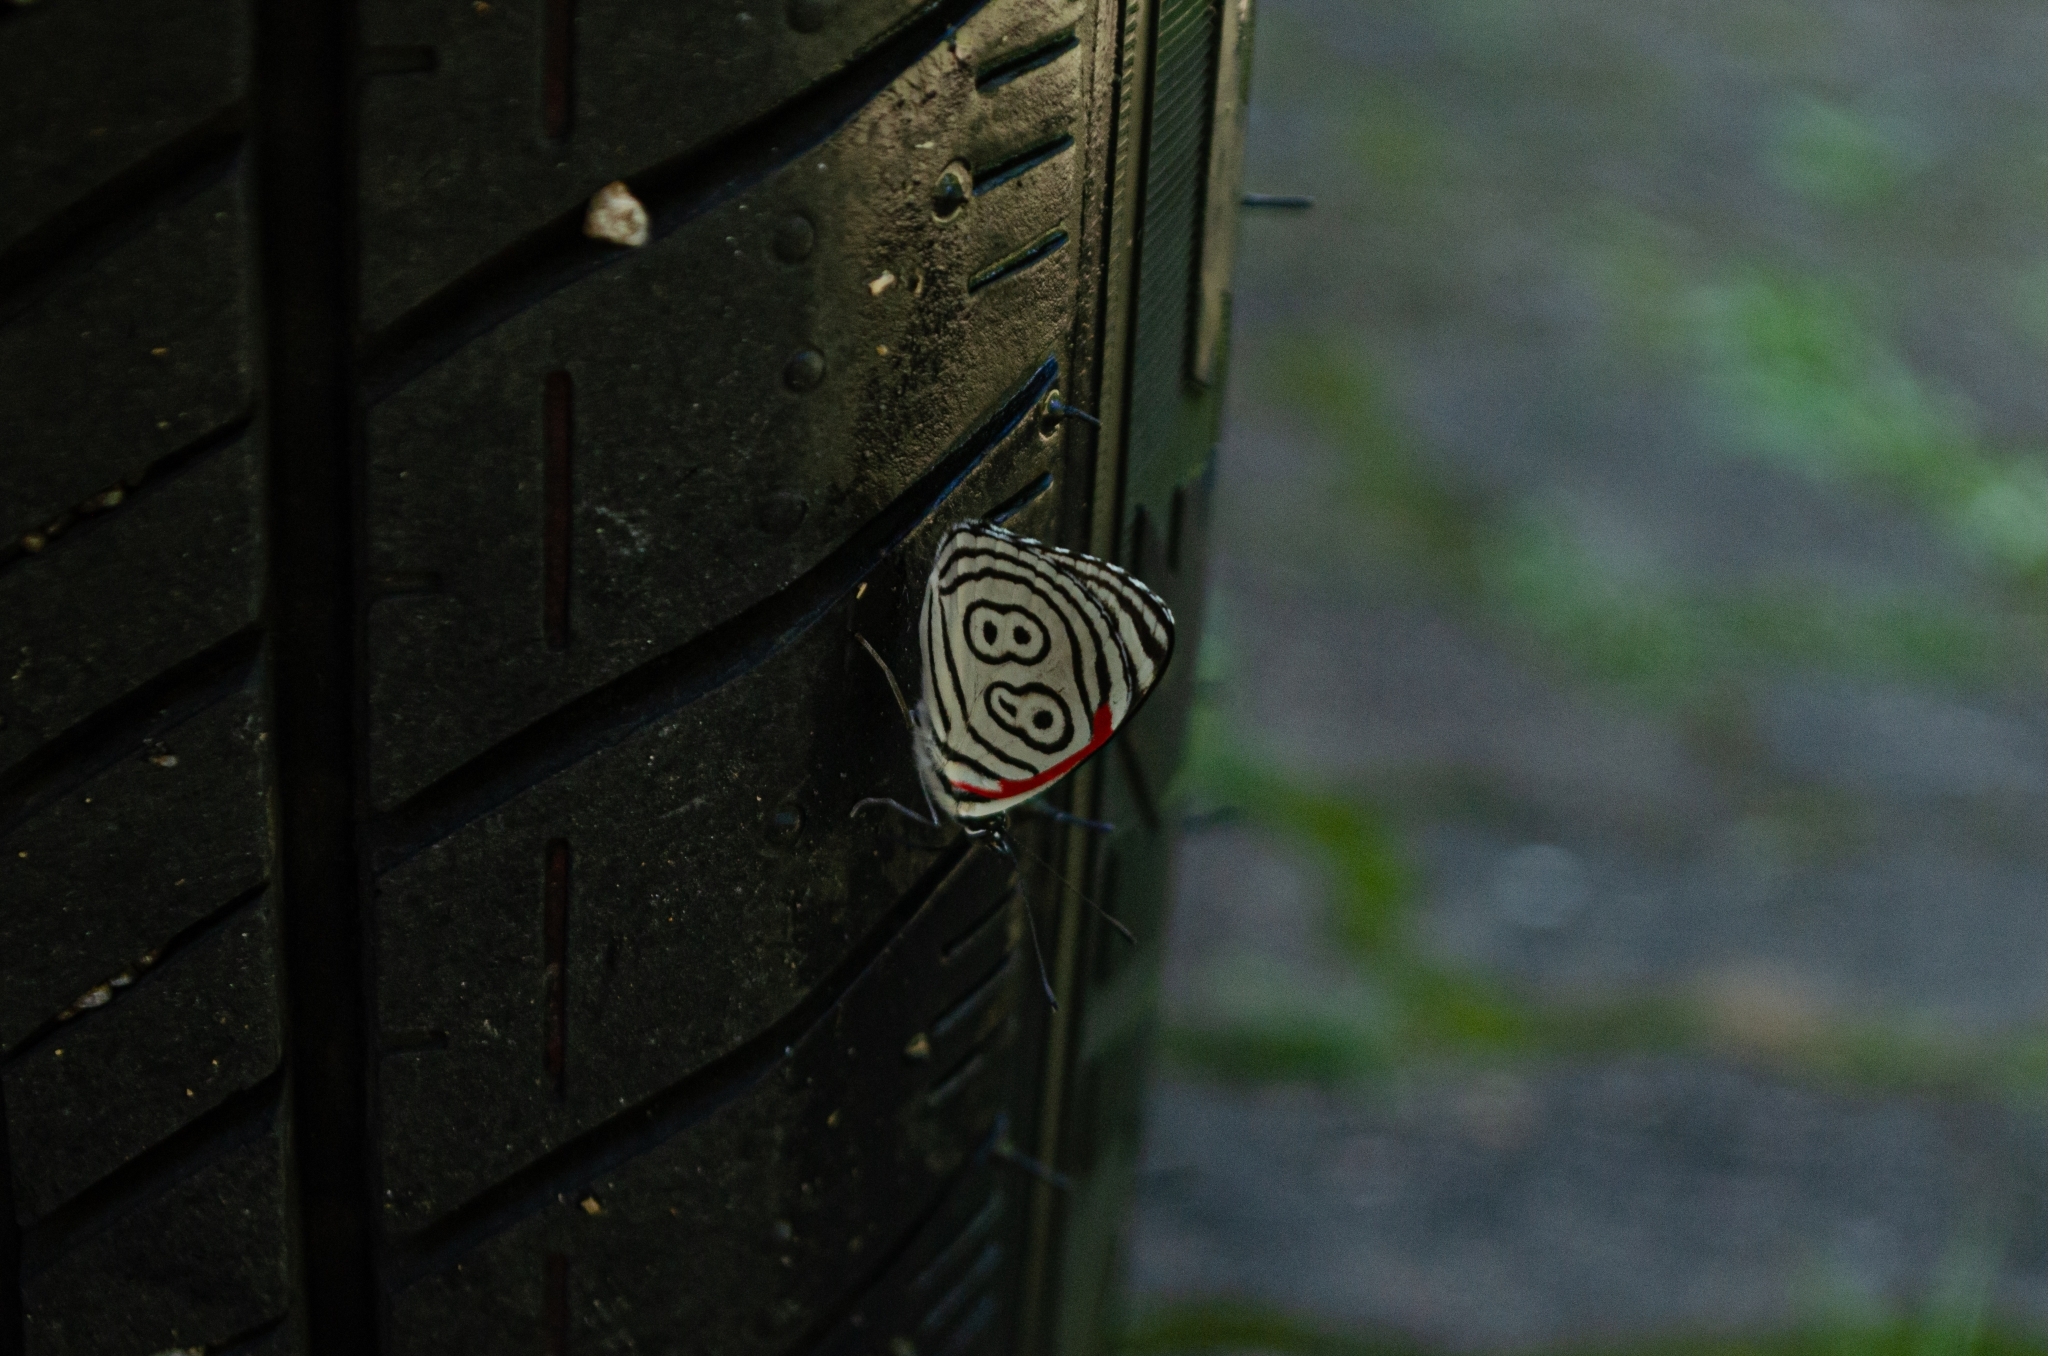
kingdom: Animalia
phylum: Arthropoda
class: Insecta
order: Lepidoptera
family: Nymphalidae
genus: Diaethria
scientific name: Diaethria clymena
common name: Widespread eighty-eight
